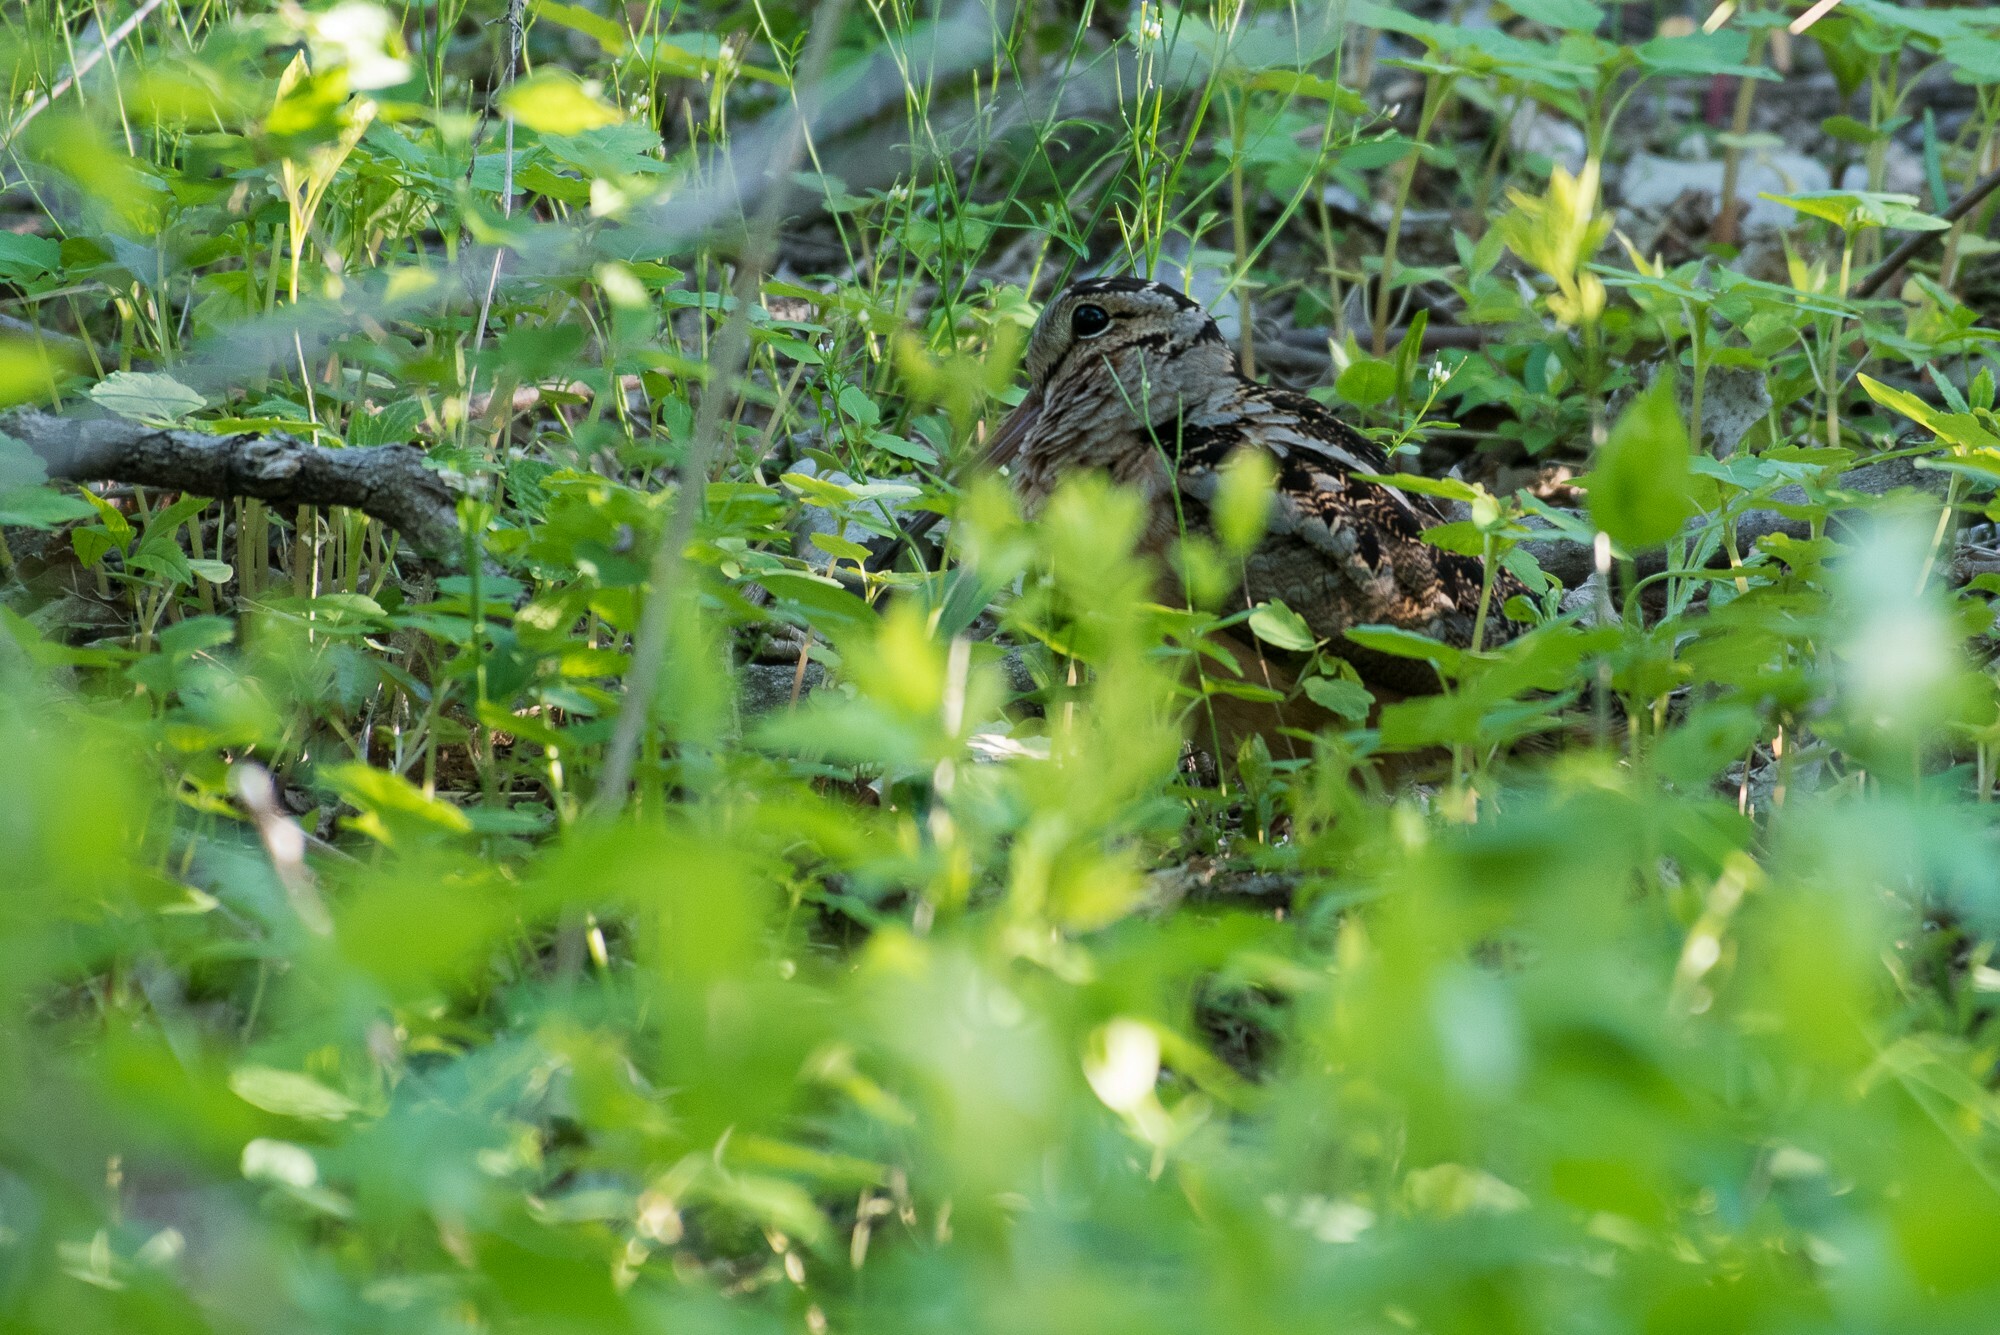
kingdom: Animalia
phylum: Chordata
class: Aves
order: Charadriiformes
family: Scolopacidae
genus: Scolopax
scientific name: Scolopax minor
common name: American woodcock
